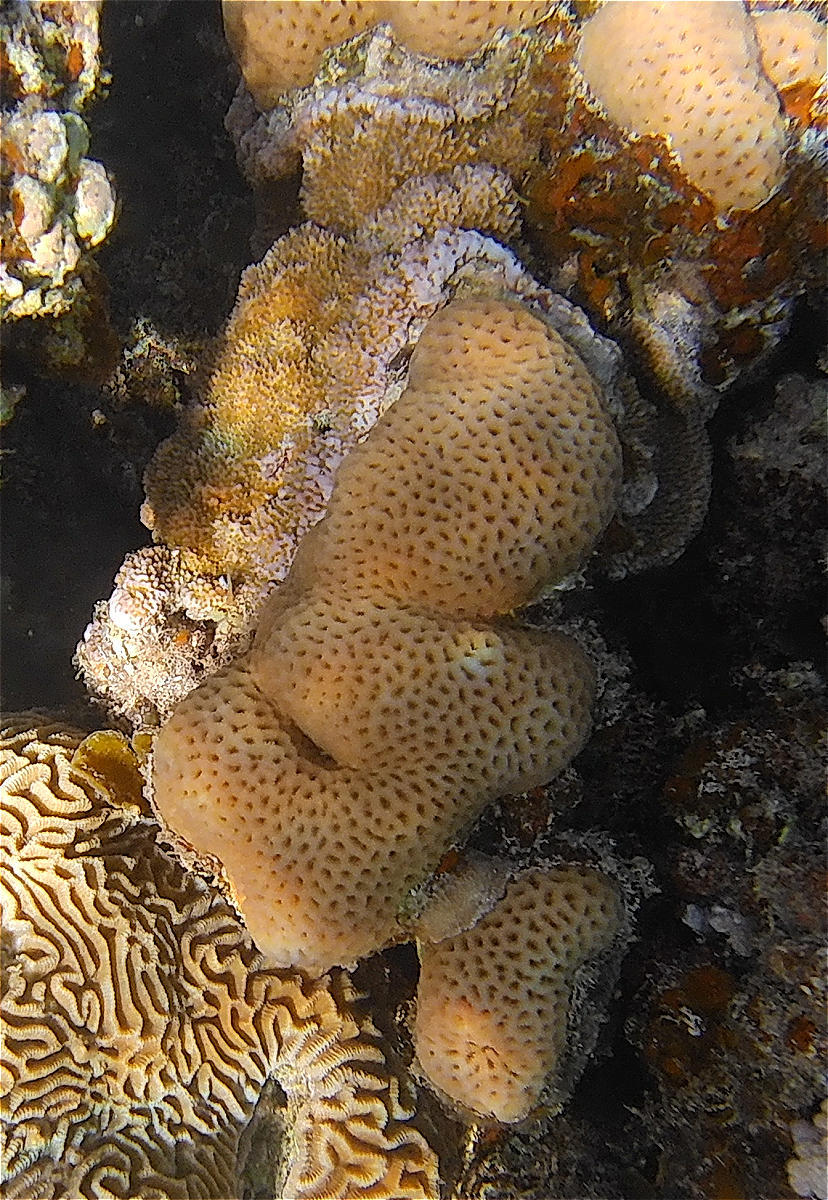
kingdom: Animalia
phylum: Cnidaria
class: Anthozoa
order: Scleractinia
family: Merulinidae
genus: Goniastrea
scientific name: Goniastrea pectinata
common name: Lesser star coral
